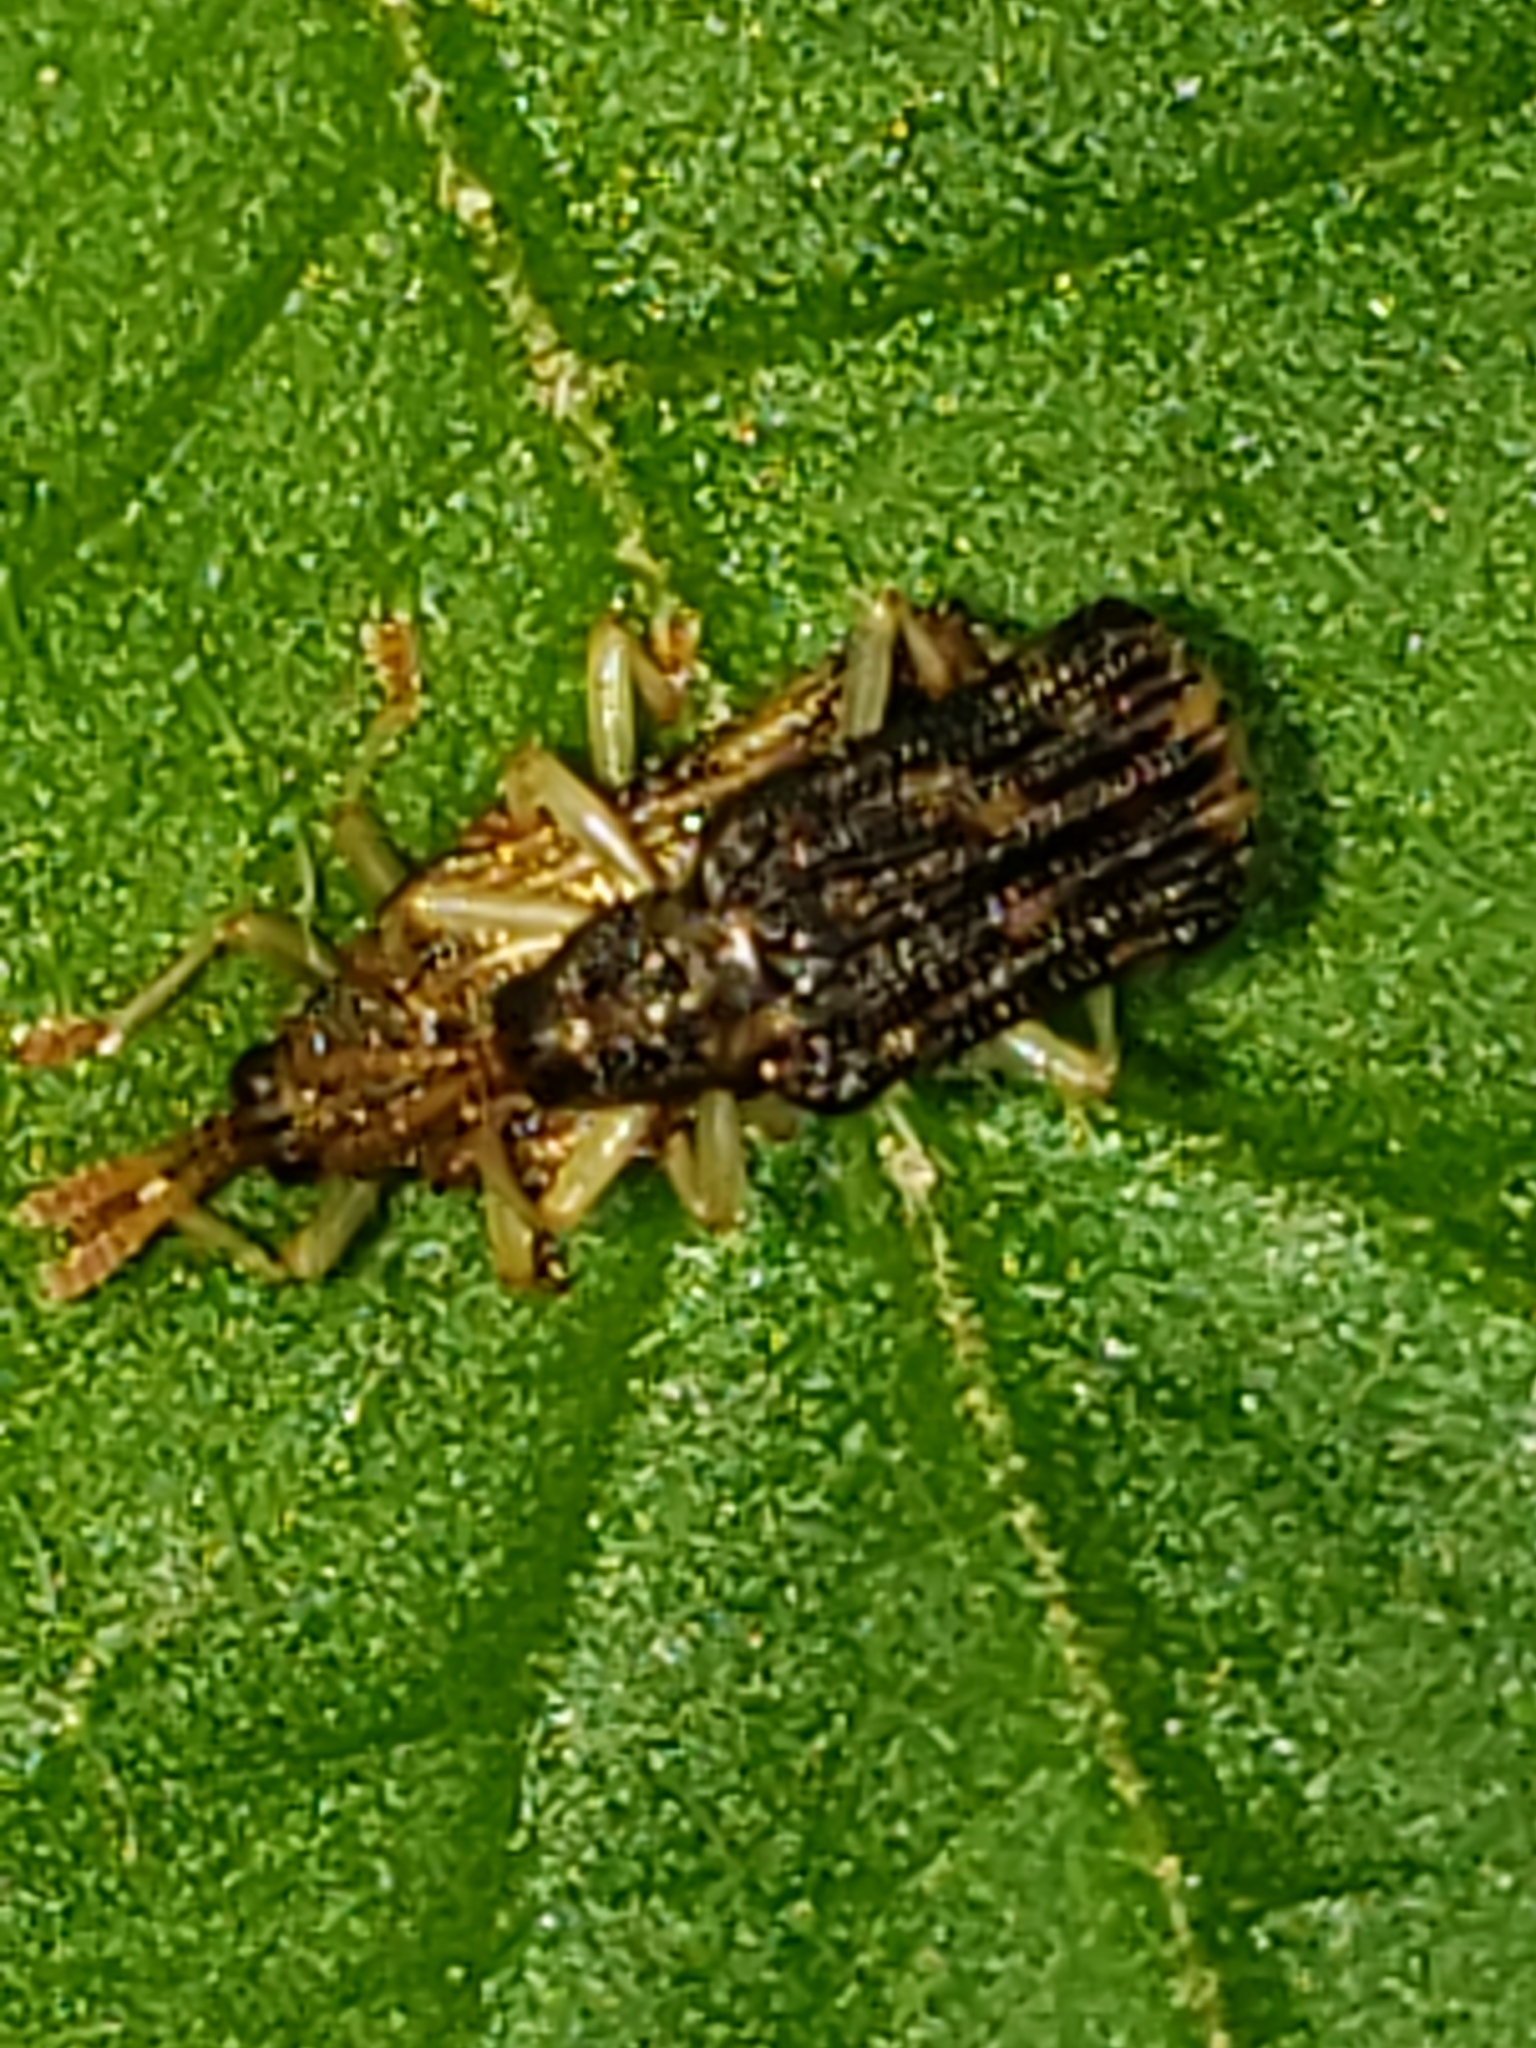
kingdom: Animalia
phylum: Arthropoda
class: Insecta
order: Coleoptera
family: Chrysomelidae
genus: Sumitrosis
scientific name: Sumitrosis rosea
